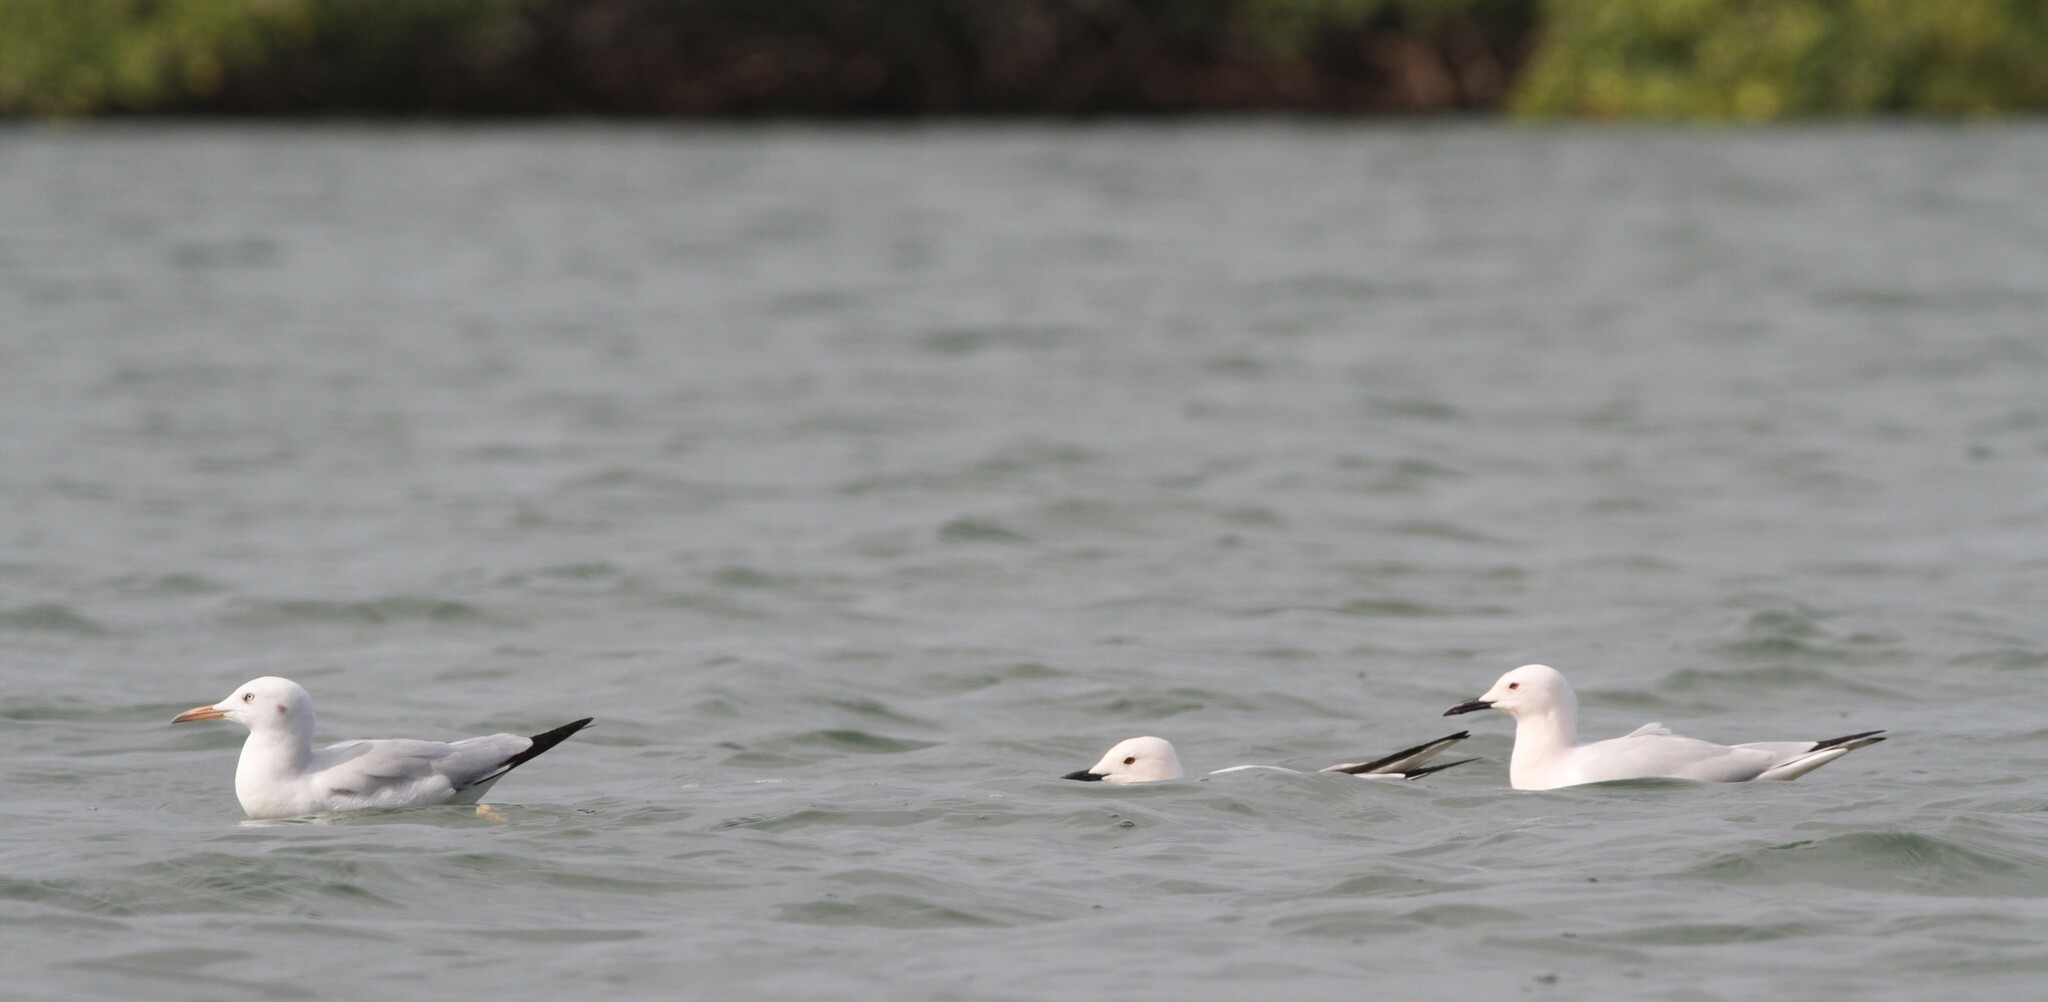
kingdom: Animalia
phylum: Chordata
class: Aves
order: Charadriiformes
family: Laridae
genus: Chroicocephalus
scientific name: Chroicocephalus genei
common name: Slender-billed gull
